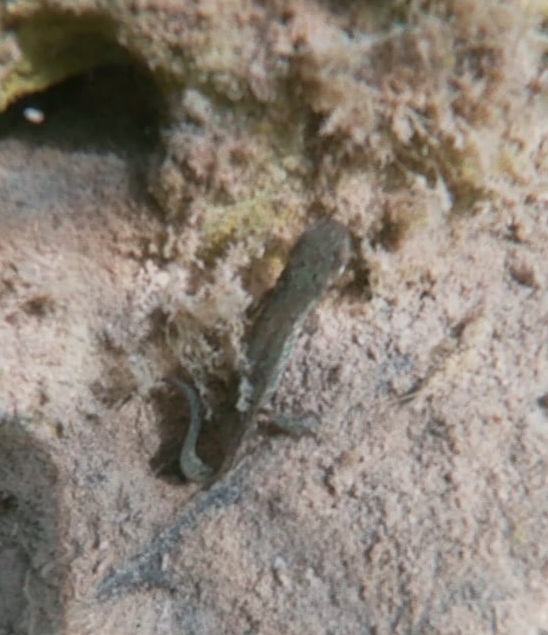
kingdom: Animalia
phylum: Chordata
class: Amphibia
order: Caudata
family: Salamandridae
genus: Lissotriton
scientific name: Lissotriton italicus
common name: Italian newt
